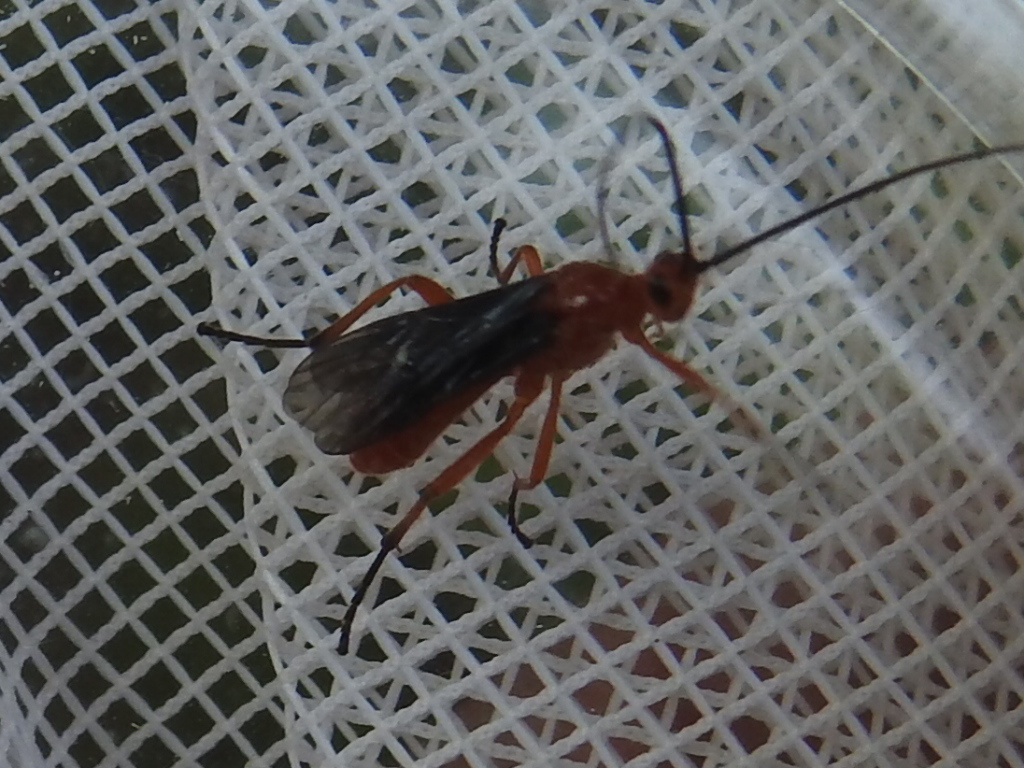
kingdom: Animalia
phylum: Arthropoda
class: Insecta
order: Hymenoptera
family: Braconidae
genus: Aleiodes
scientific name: Aleiodes politiceps
